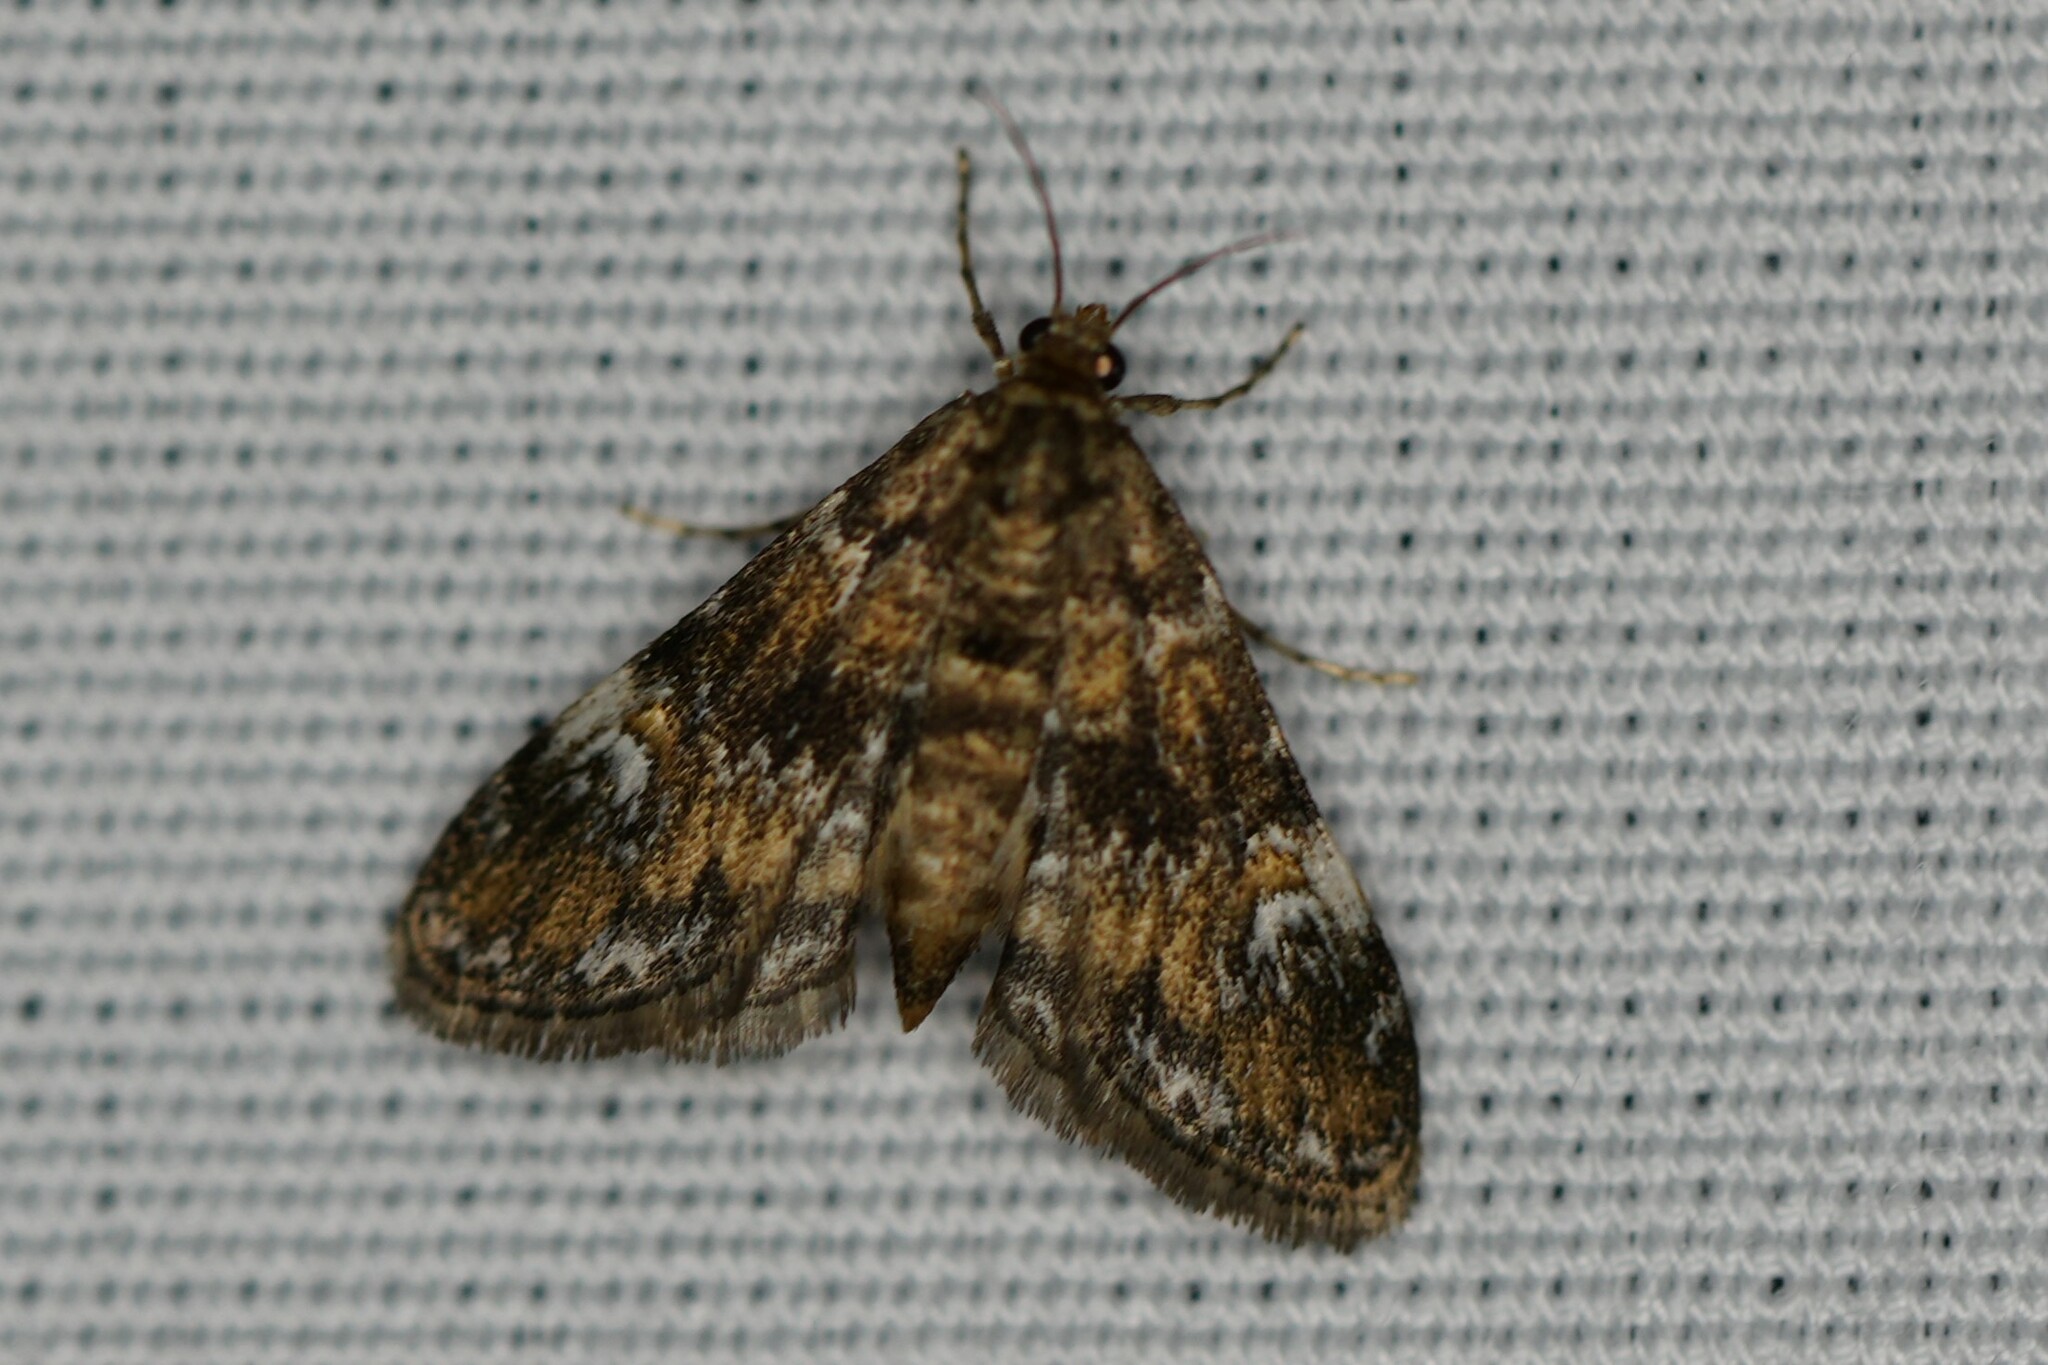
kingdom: Animalia
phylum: Arthropoda
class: Insecta
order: Lepidoptera
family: Crambidae
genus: Elophila
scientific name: Elophila obliteralis
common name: Waterlily leafcutter moth
